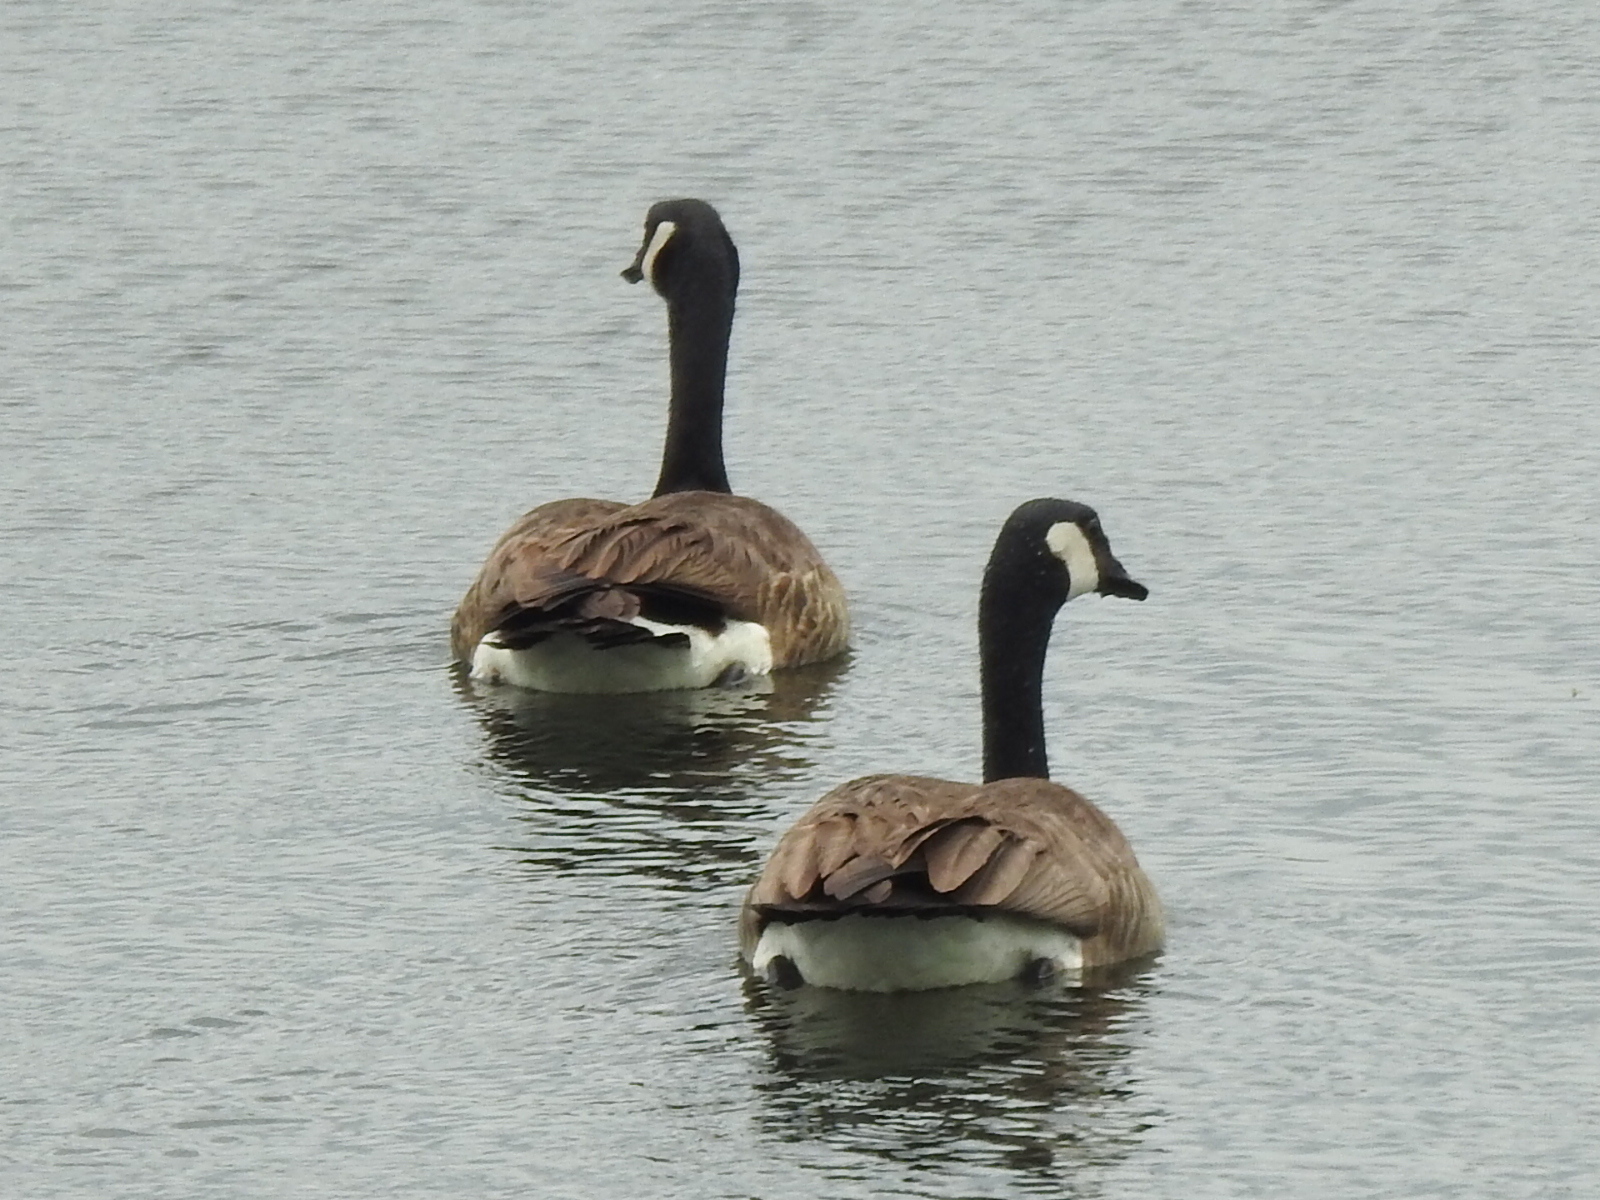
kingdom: Animalia
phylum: Chordata
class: Aves
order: Anseriformes
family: Anatidae
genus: Branta
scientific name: Branta canadensis
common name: Canada goose
